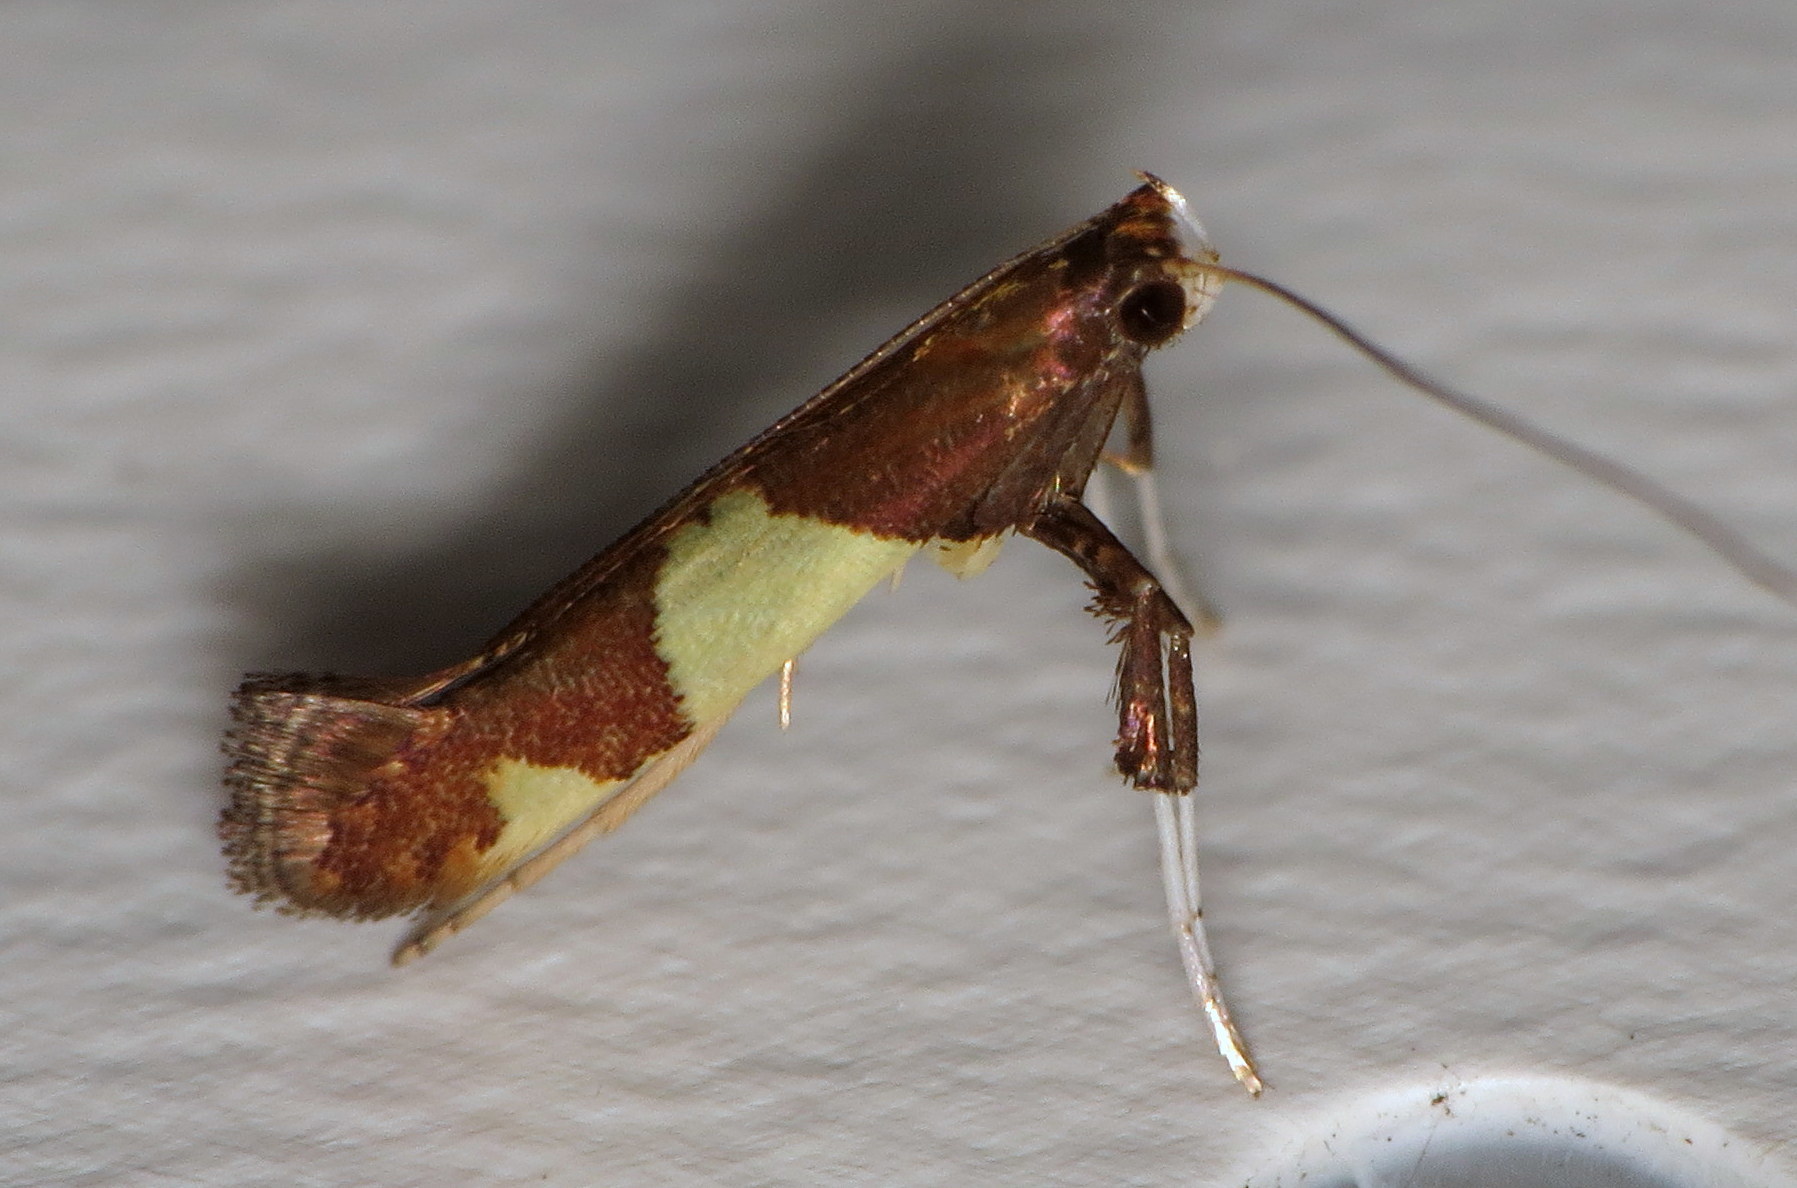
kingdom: Animalia
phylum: Arthropoda
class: Insecta
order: Lepidoptera
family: Gracillariidae
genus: Caloptilia
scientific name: Caloptilia bimaculatella
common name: Maple caloptilia moth
